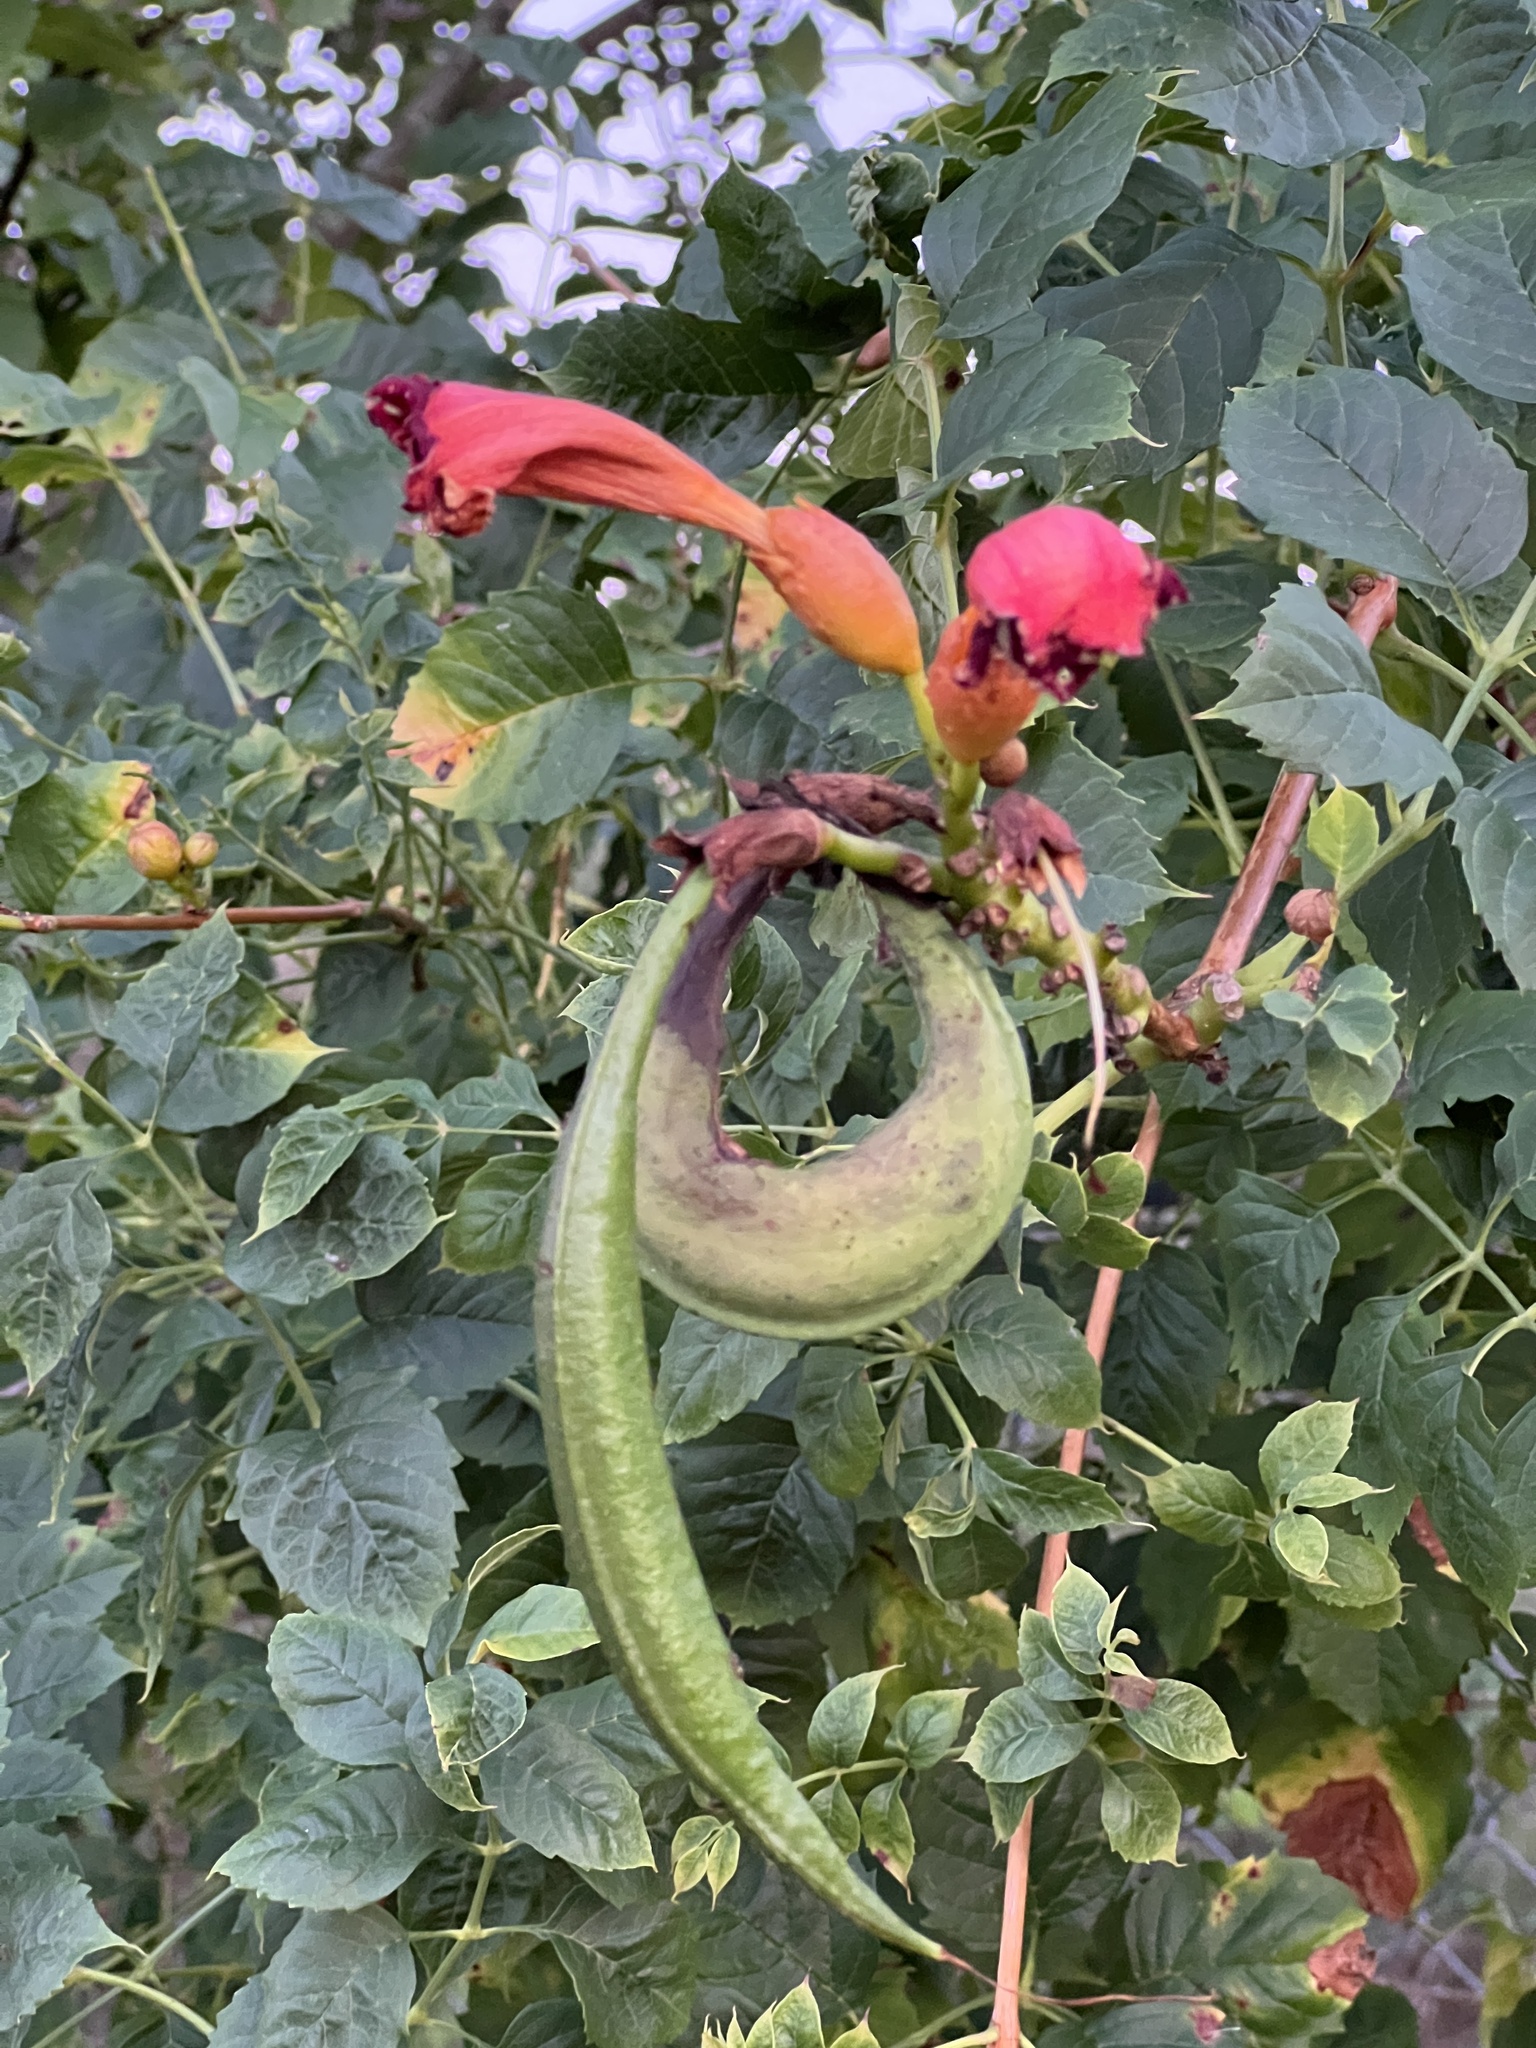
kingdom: Plantae
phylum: Tracheophyta
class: Magnoliopsida
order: Lamiales
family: Bignoniaceae
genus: Campsis
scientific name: Campsis radicans
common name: Trumpet-creeper
